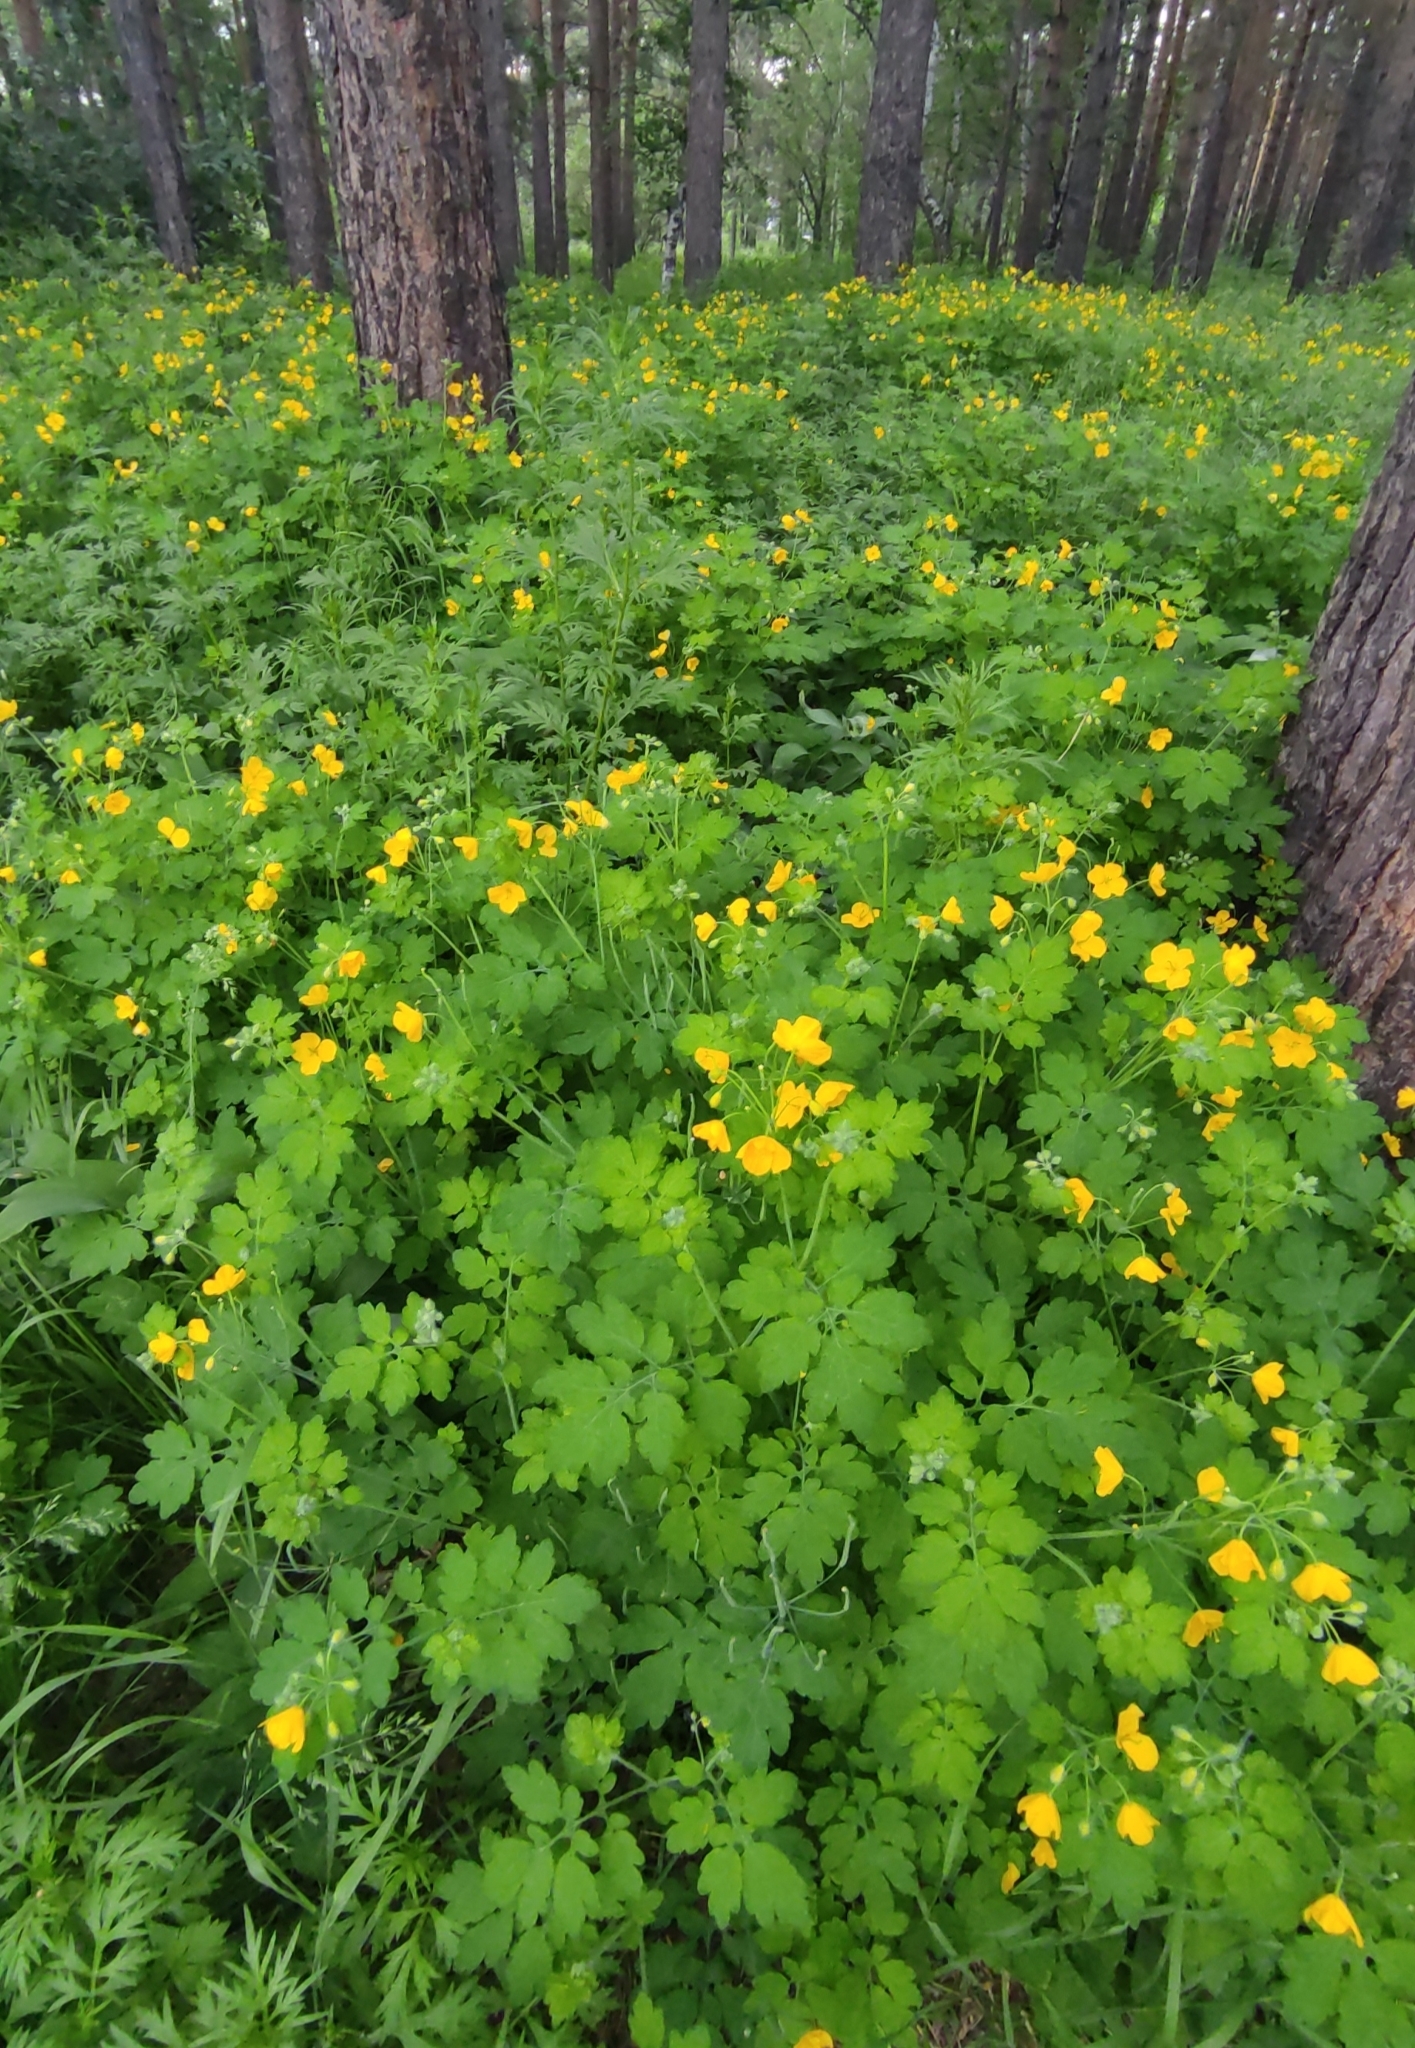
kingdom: Plantae
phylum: Tracheophyta
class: Magnoliopsida
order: Ranunculales
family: Papaveraceae
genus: Chelidonium
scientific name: Chelidonium majus
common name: Greater celandine
